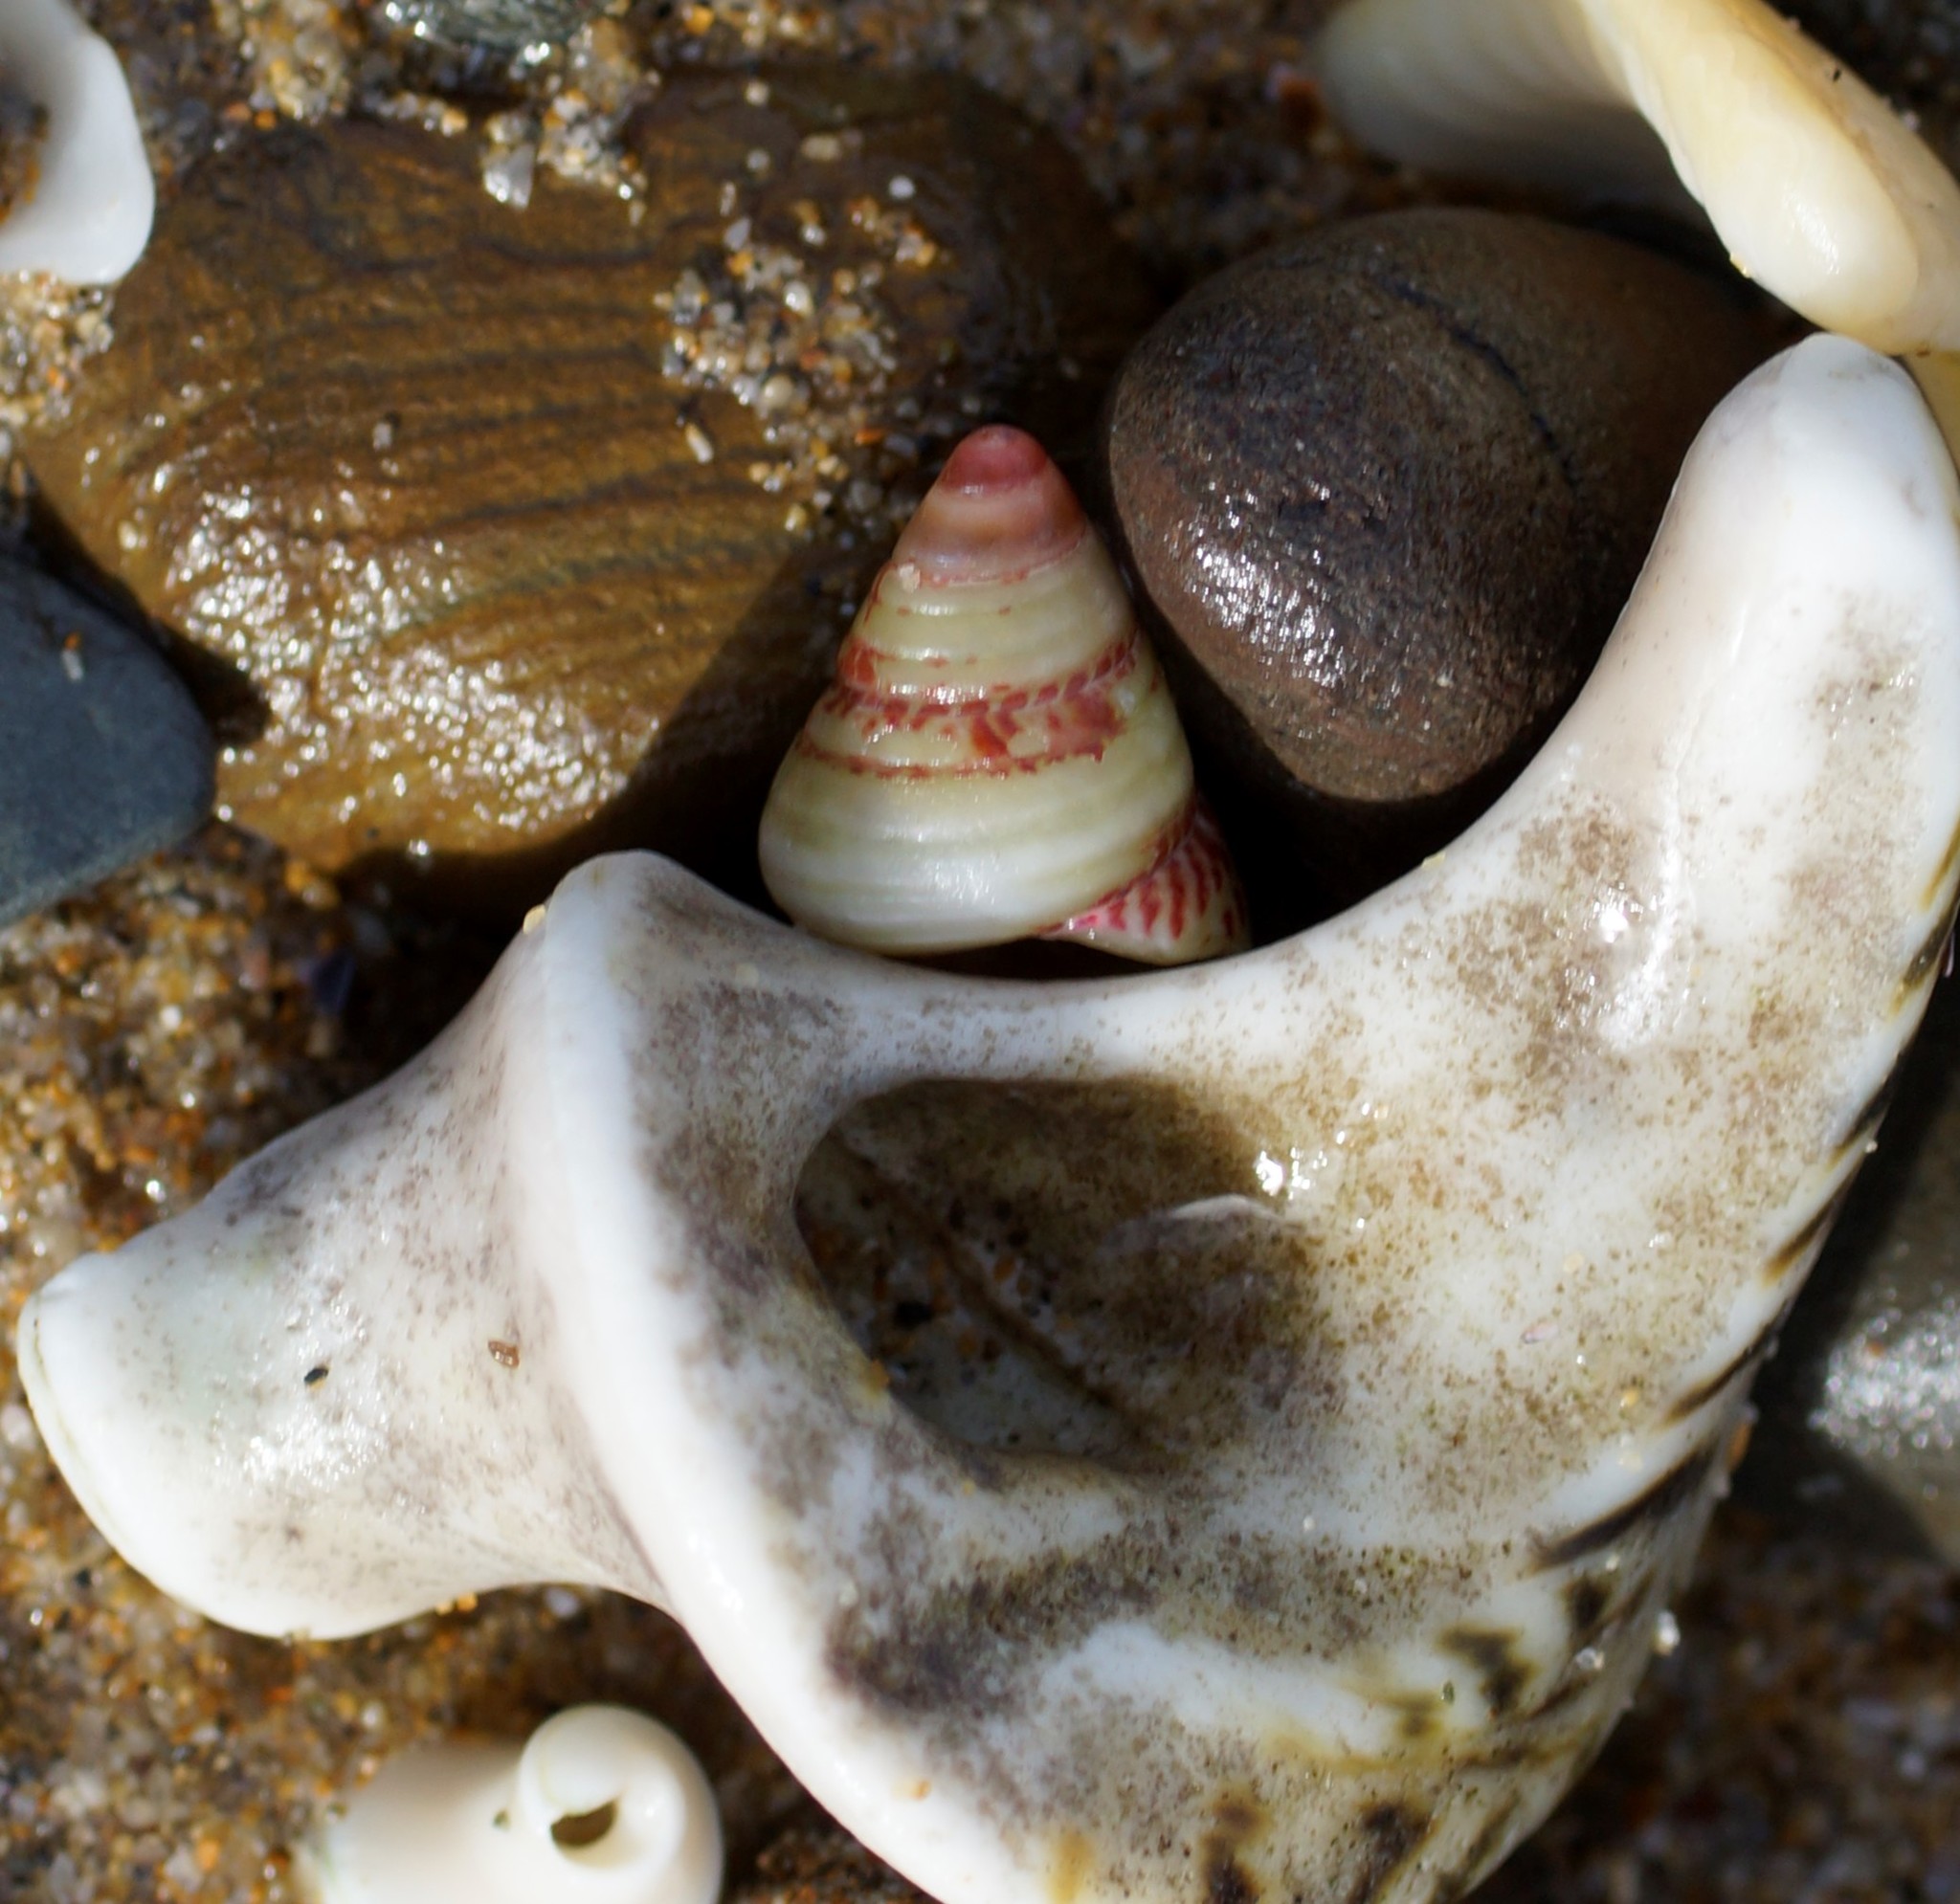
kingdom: Animalia
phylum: Mollusca
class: Gastropoda
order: Trochida
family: Trochidae
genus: Prothalotia
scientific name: Prothalotia pulcherrima
